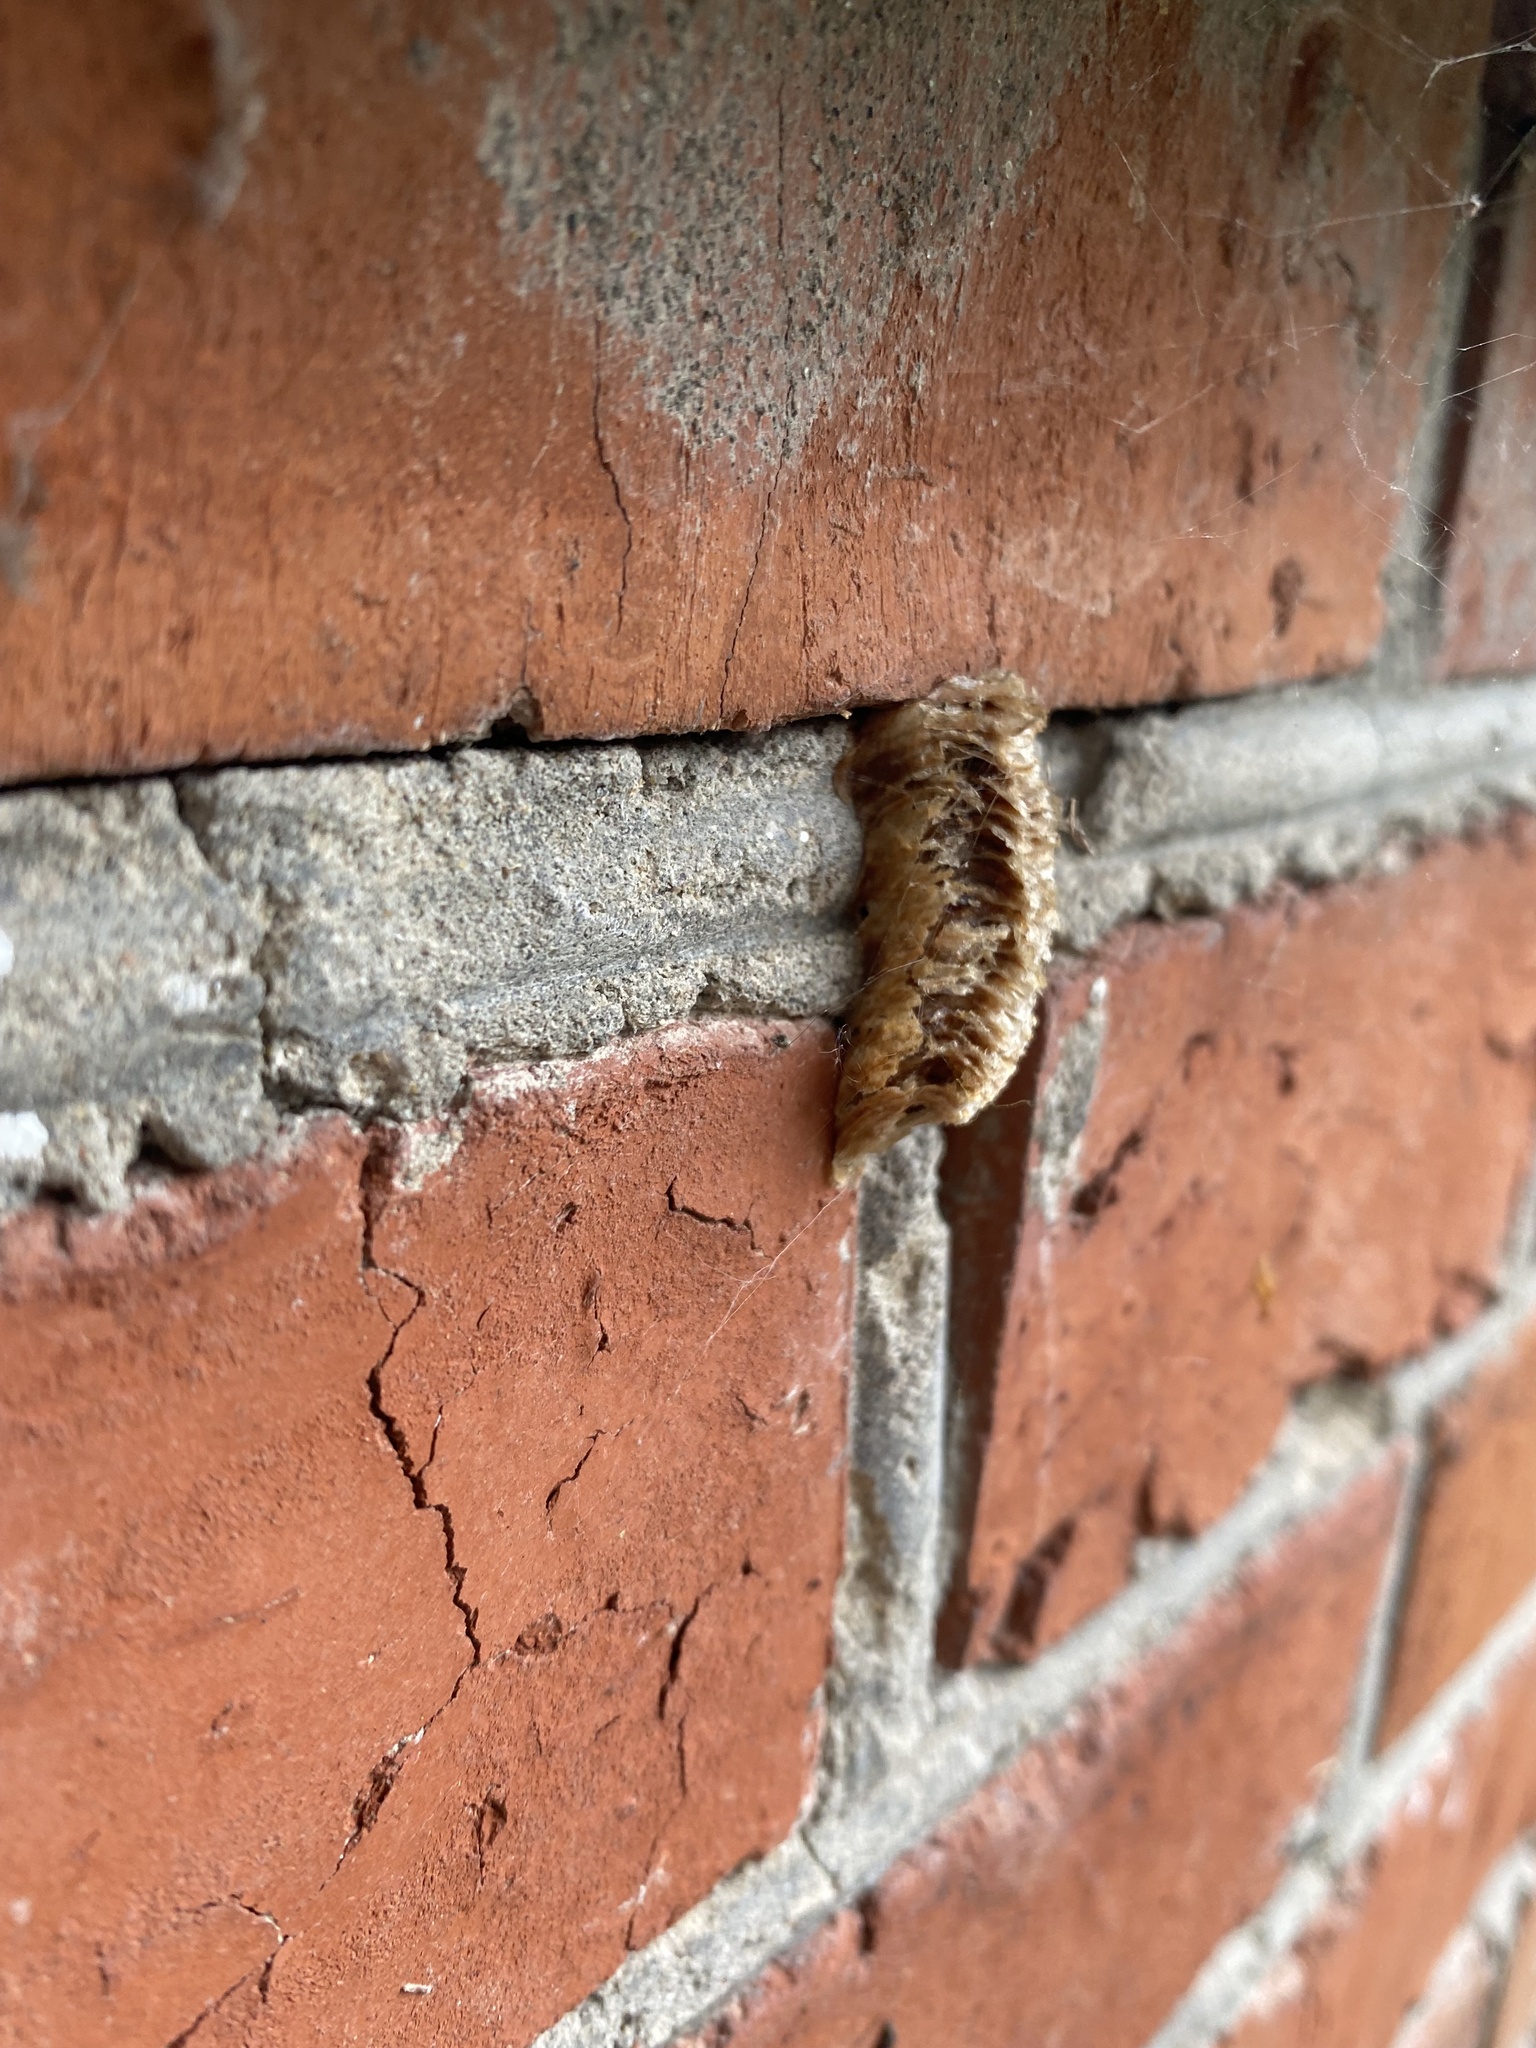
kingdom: Animalia
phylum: Arthropoda
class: Insecta
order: Mantodea
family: Mantidae
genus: Mantis
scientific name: Mantis religiosa
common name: Praying mantis
